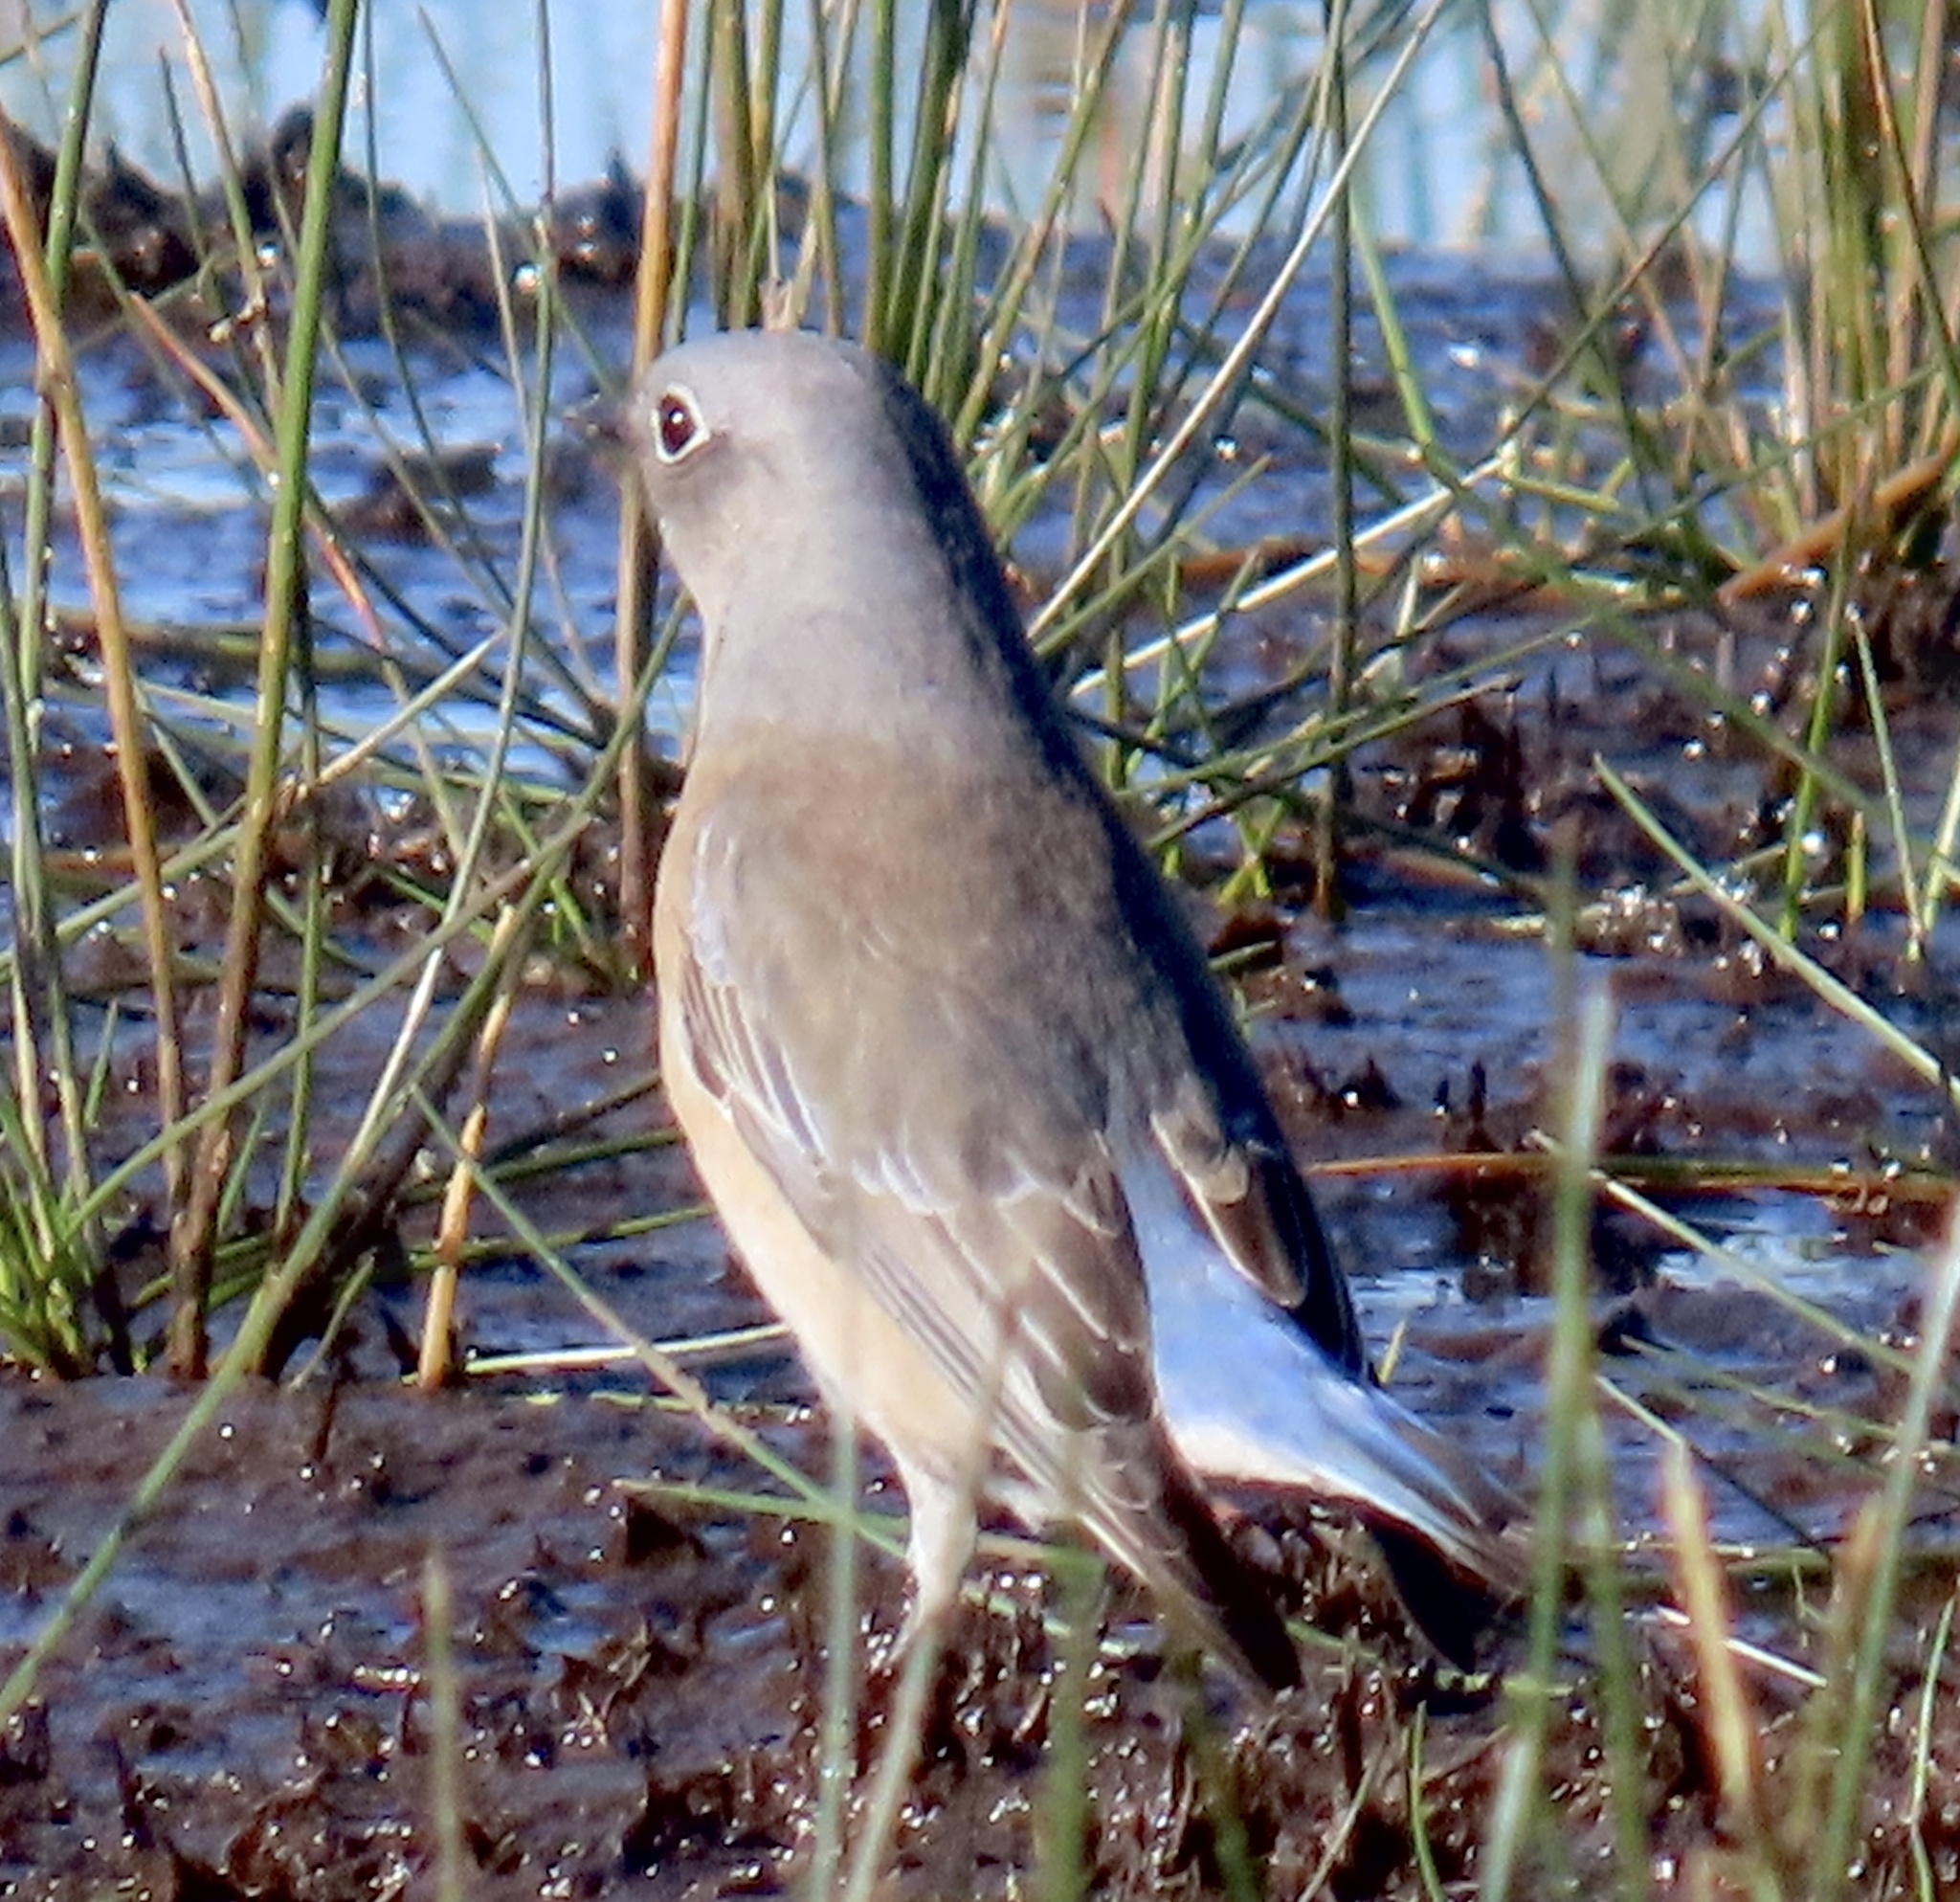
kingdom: Animalia
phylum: Chordata
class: Aves
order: Passeriformes
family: Turdidae
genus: Sialia
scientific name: Sialia mexicana
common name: Western bluebird
